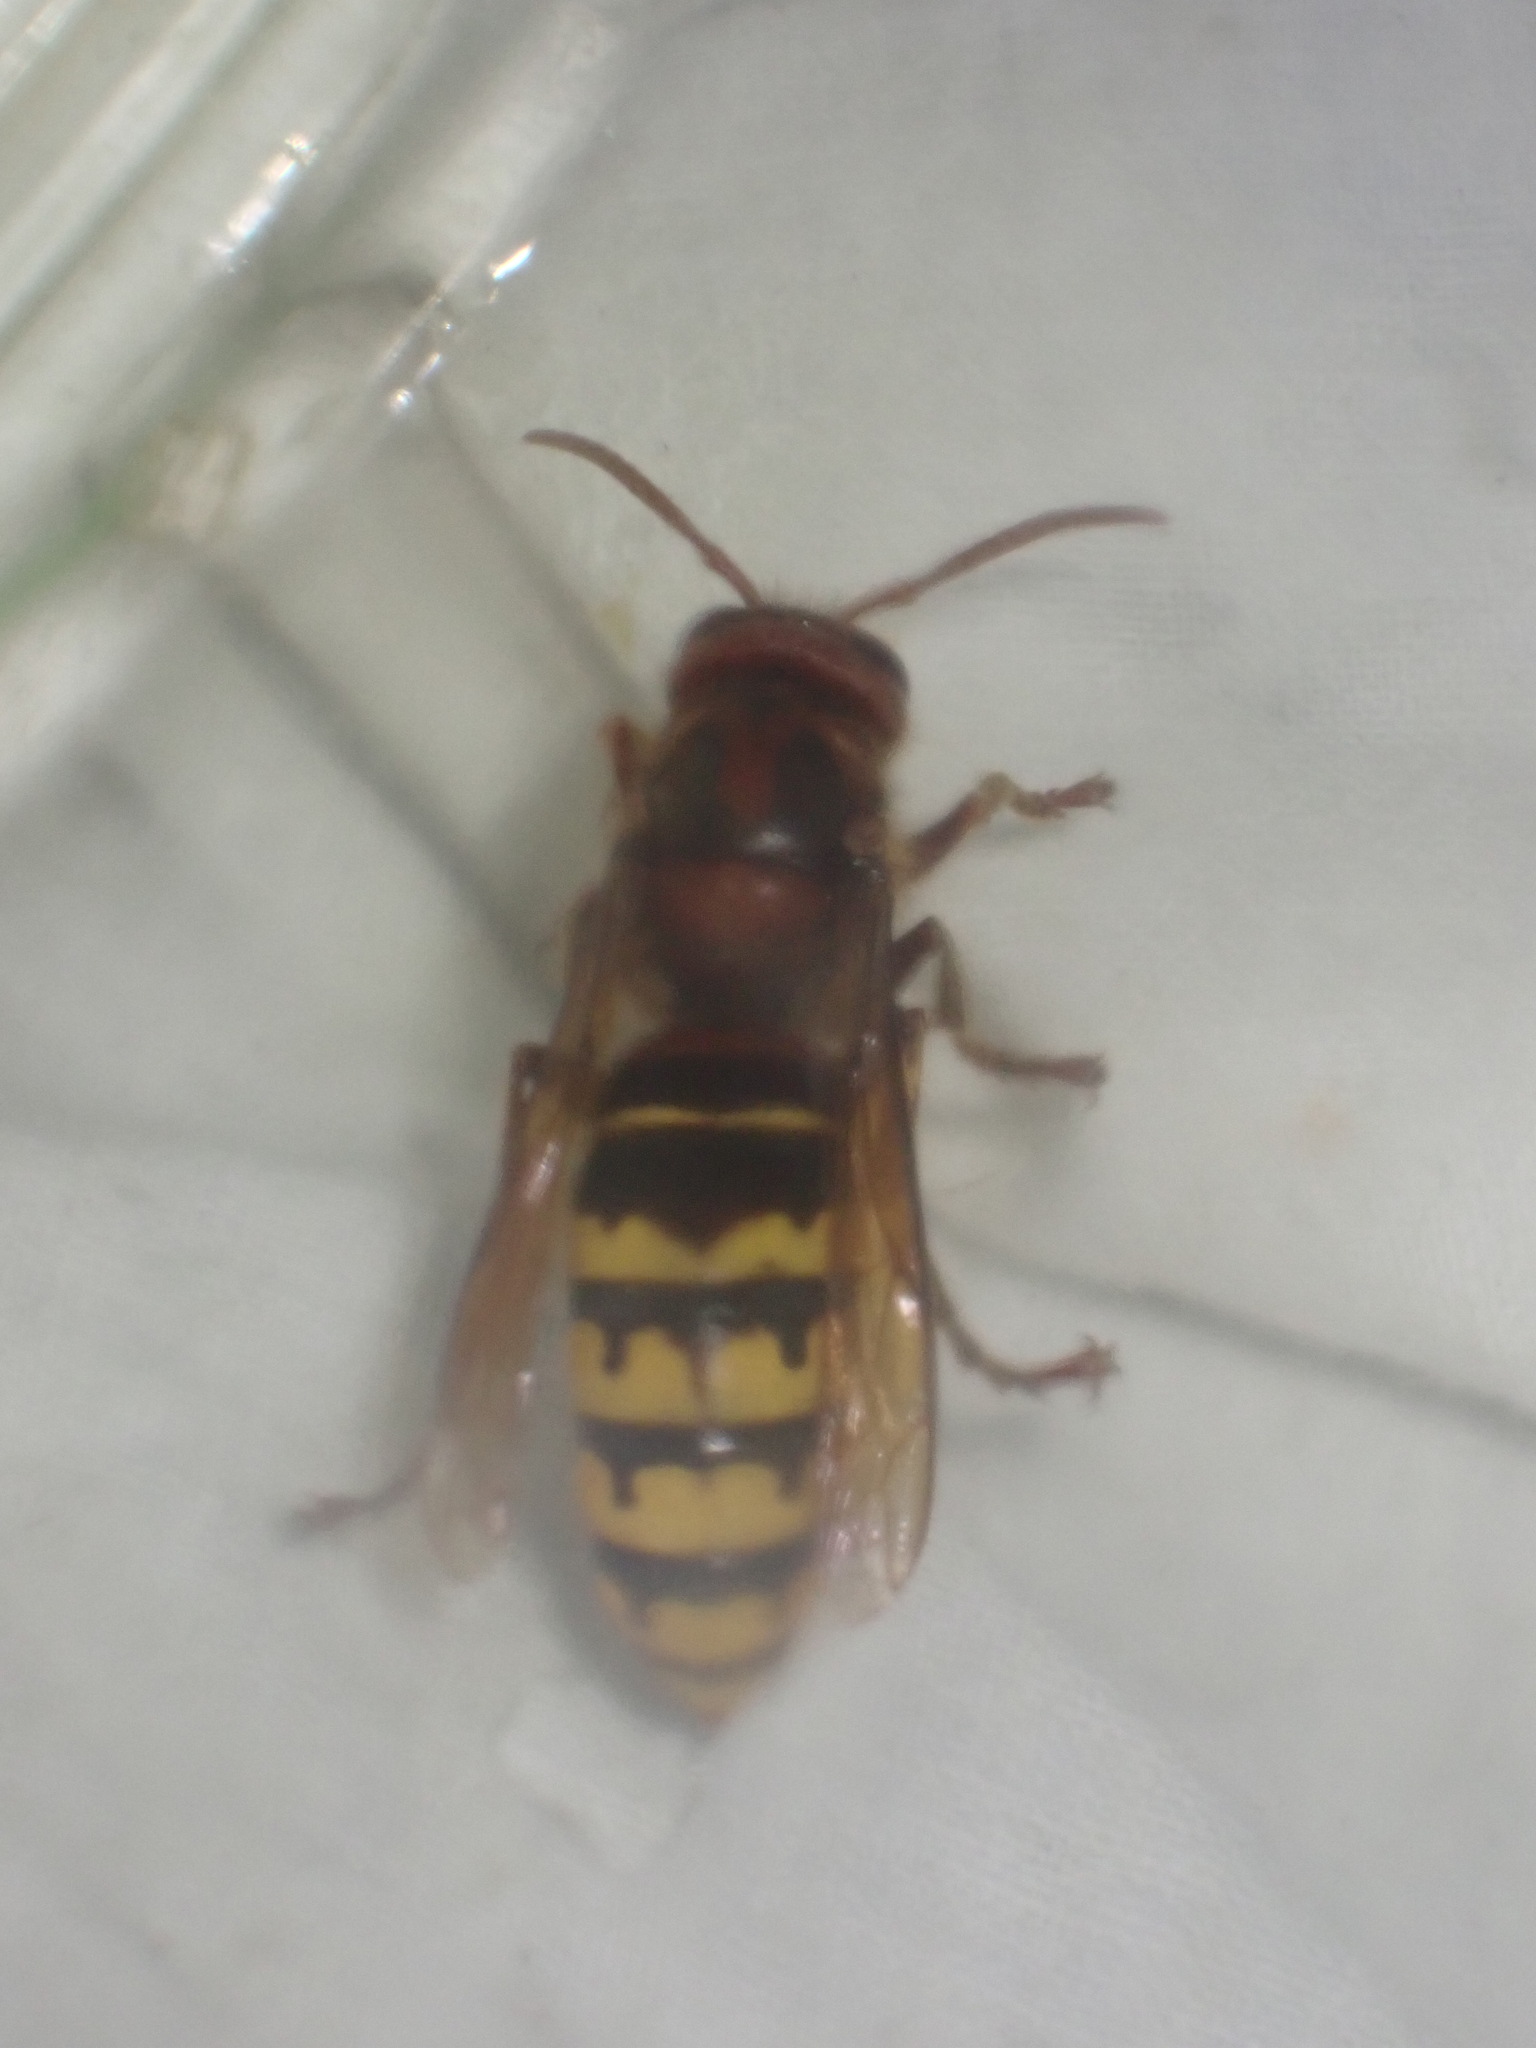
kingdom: Animalia
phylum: Arthropoda
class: Insecta
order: Hymenoptera
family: Vespidae
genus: Vespa
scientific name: Vespa crabro
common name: Hornet
